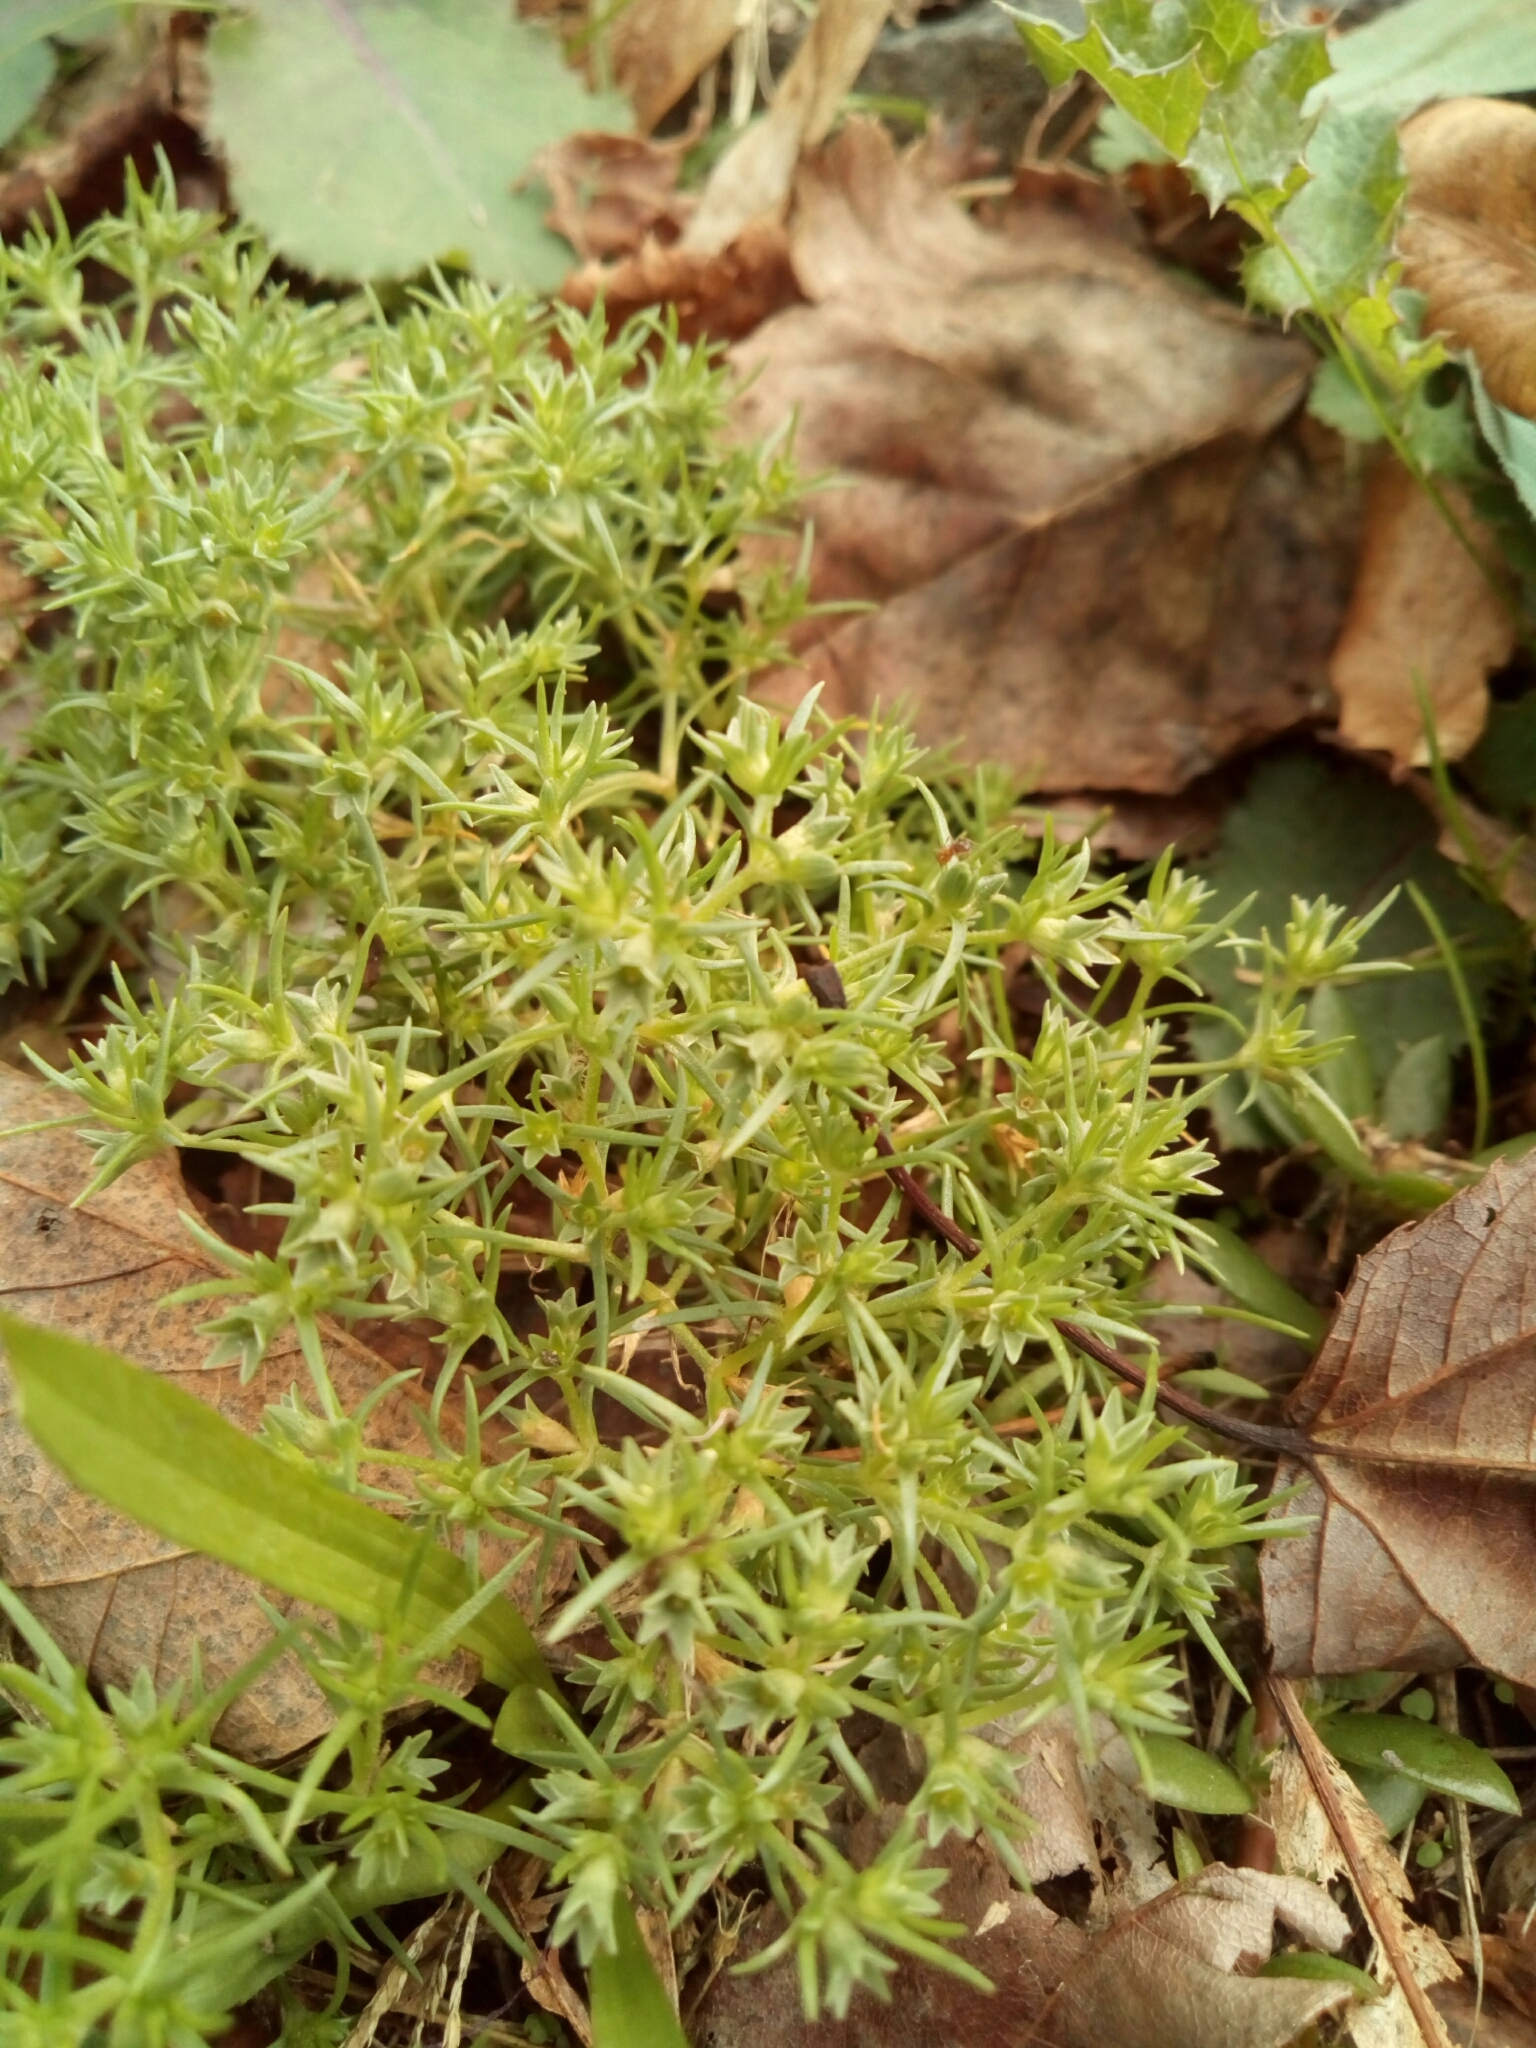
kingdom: Plantae
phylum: Tracheophyta
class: Magnoliopsida
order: Caryophyllales
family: Caryophyllaceae
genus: Scleranthus
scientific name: Scleranthus annuus
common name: Annual knawel
